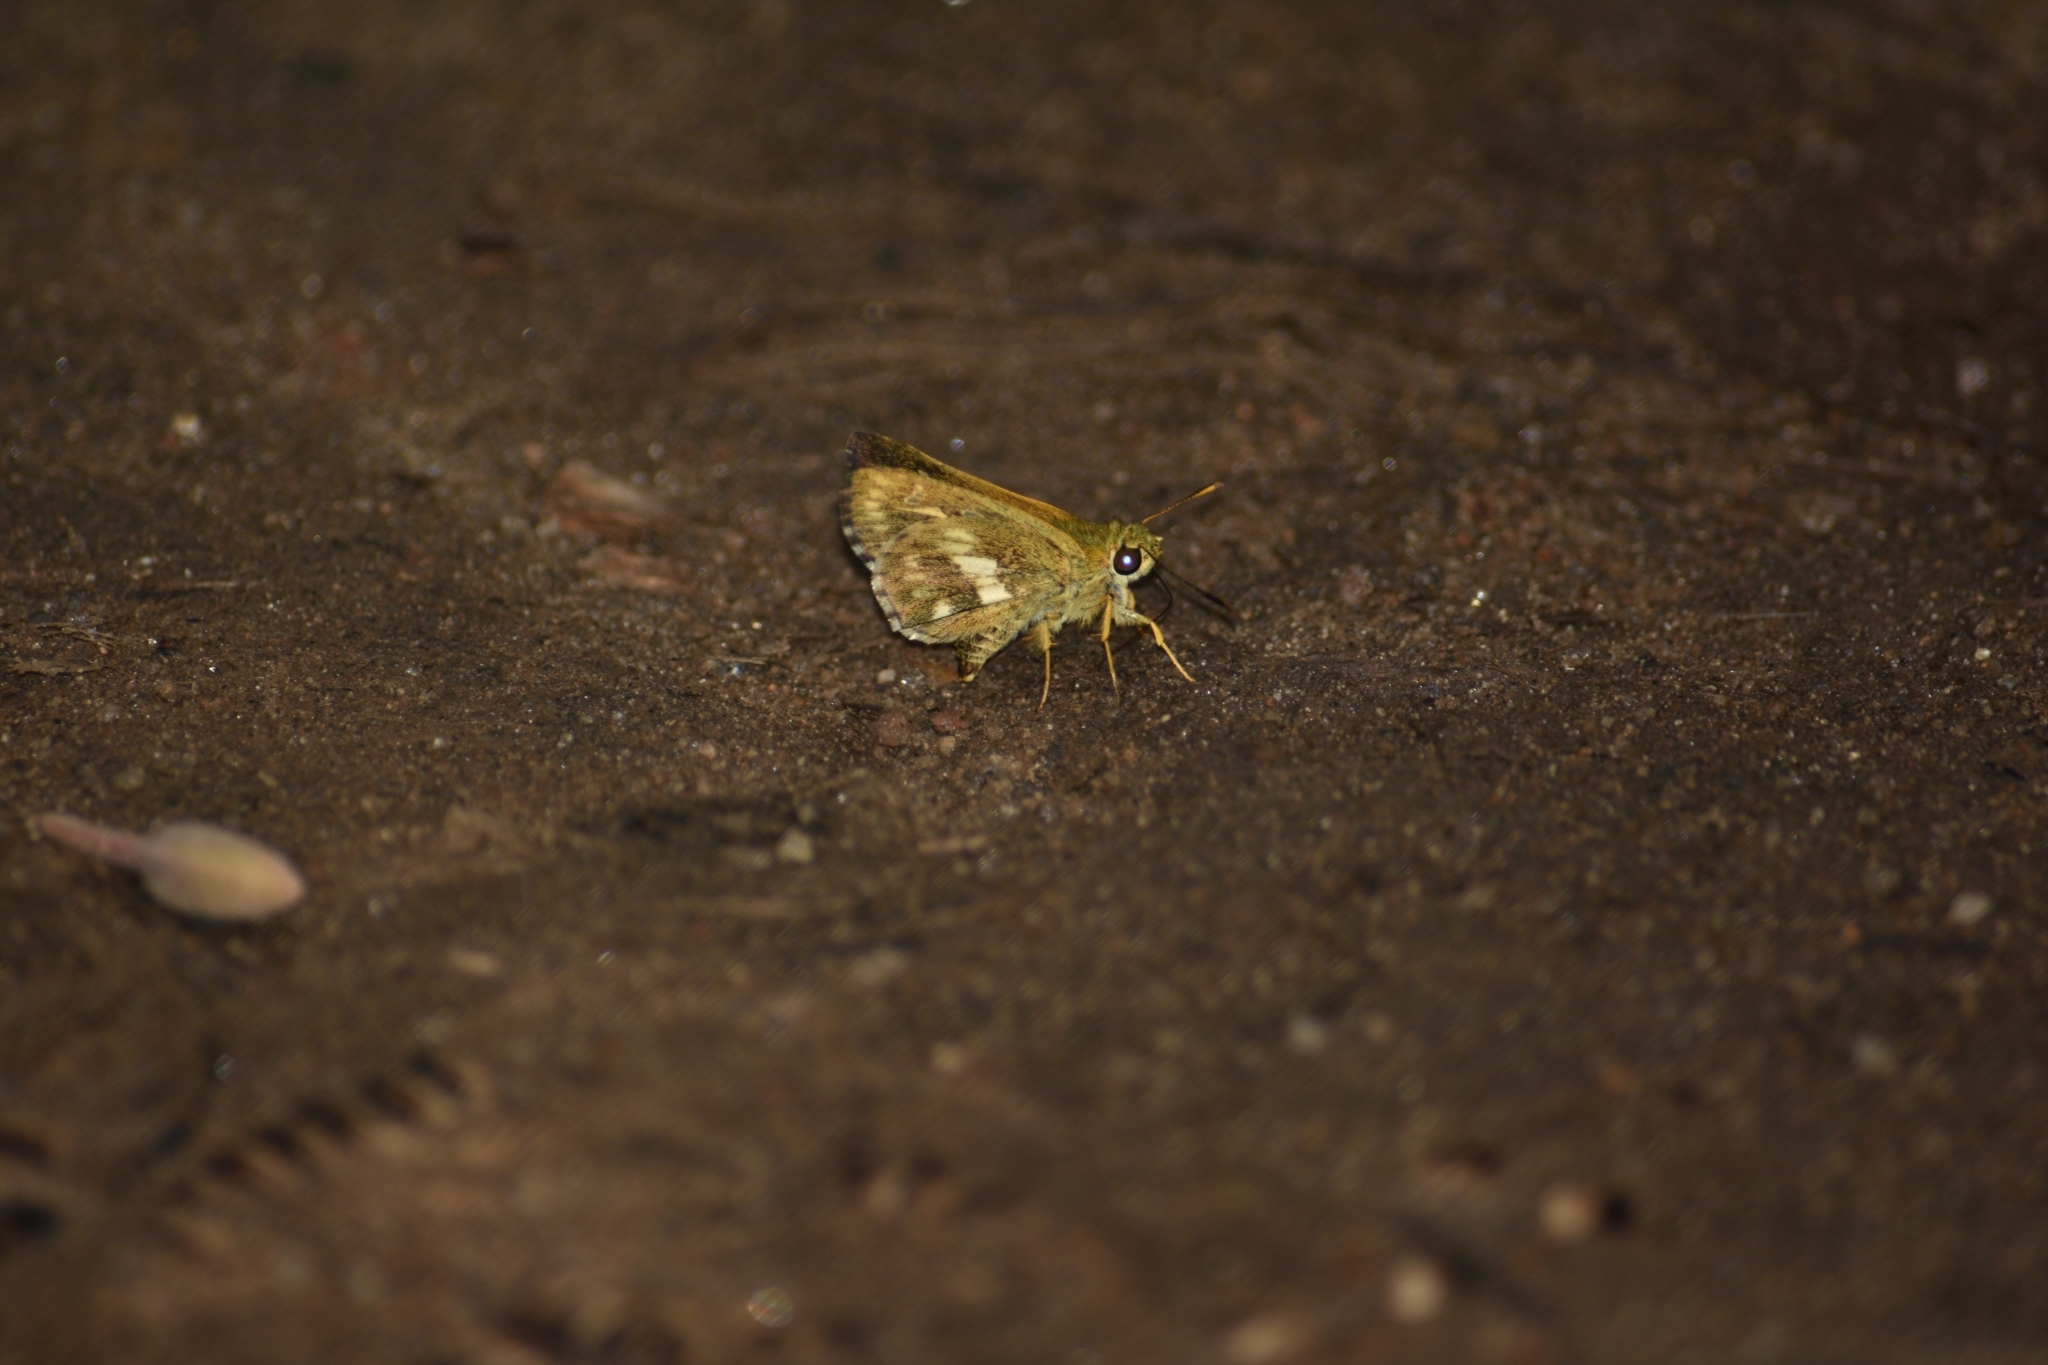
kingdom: Animalia
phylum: Arthropoda
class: Insecta
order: Lepidoptera
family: Hesperiidae
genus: Halpe
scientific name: Halpe homolea
